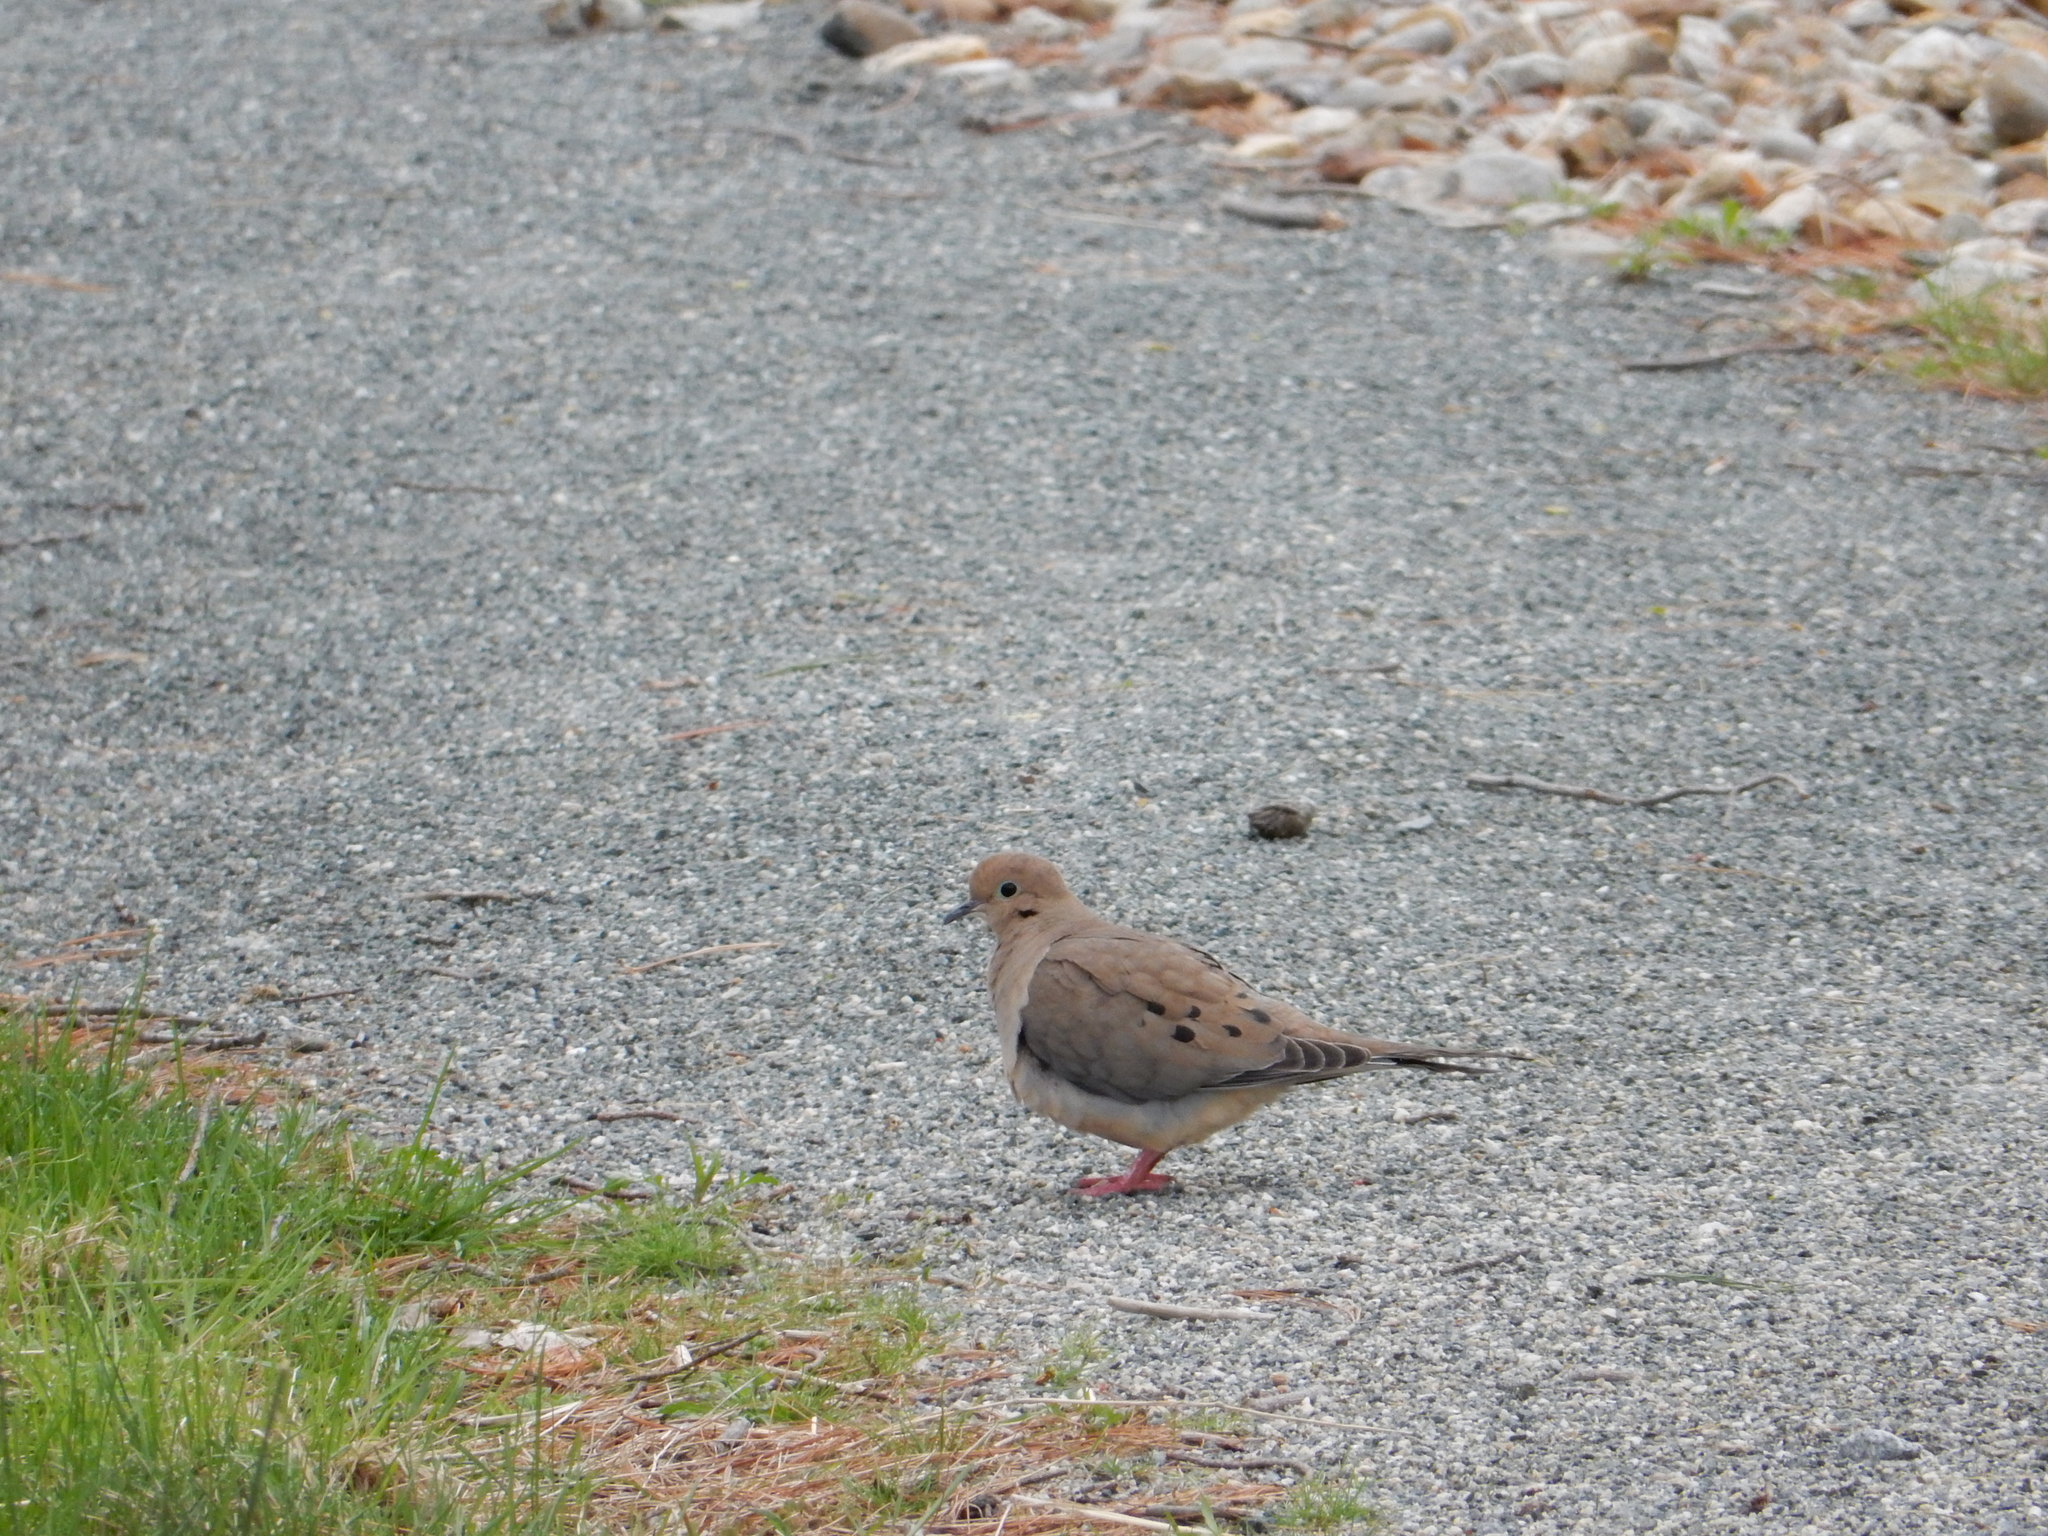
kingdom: Animalia
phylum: Chordata
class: Aves
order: Columbiformes
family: Columbidae
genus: Zenaida
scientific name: Zenaida macroura
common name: Mourning dove
